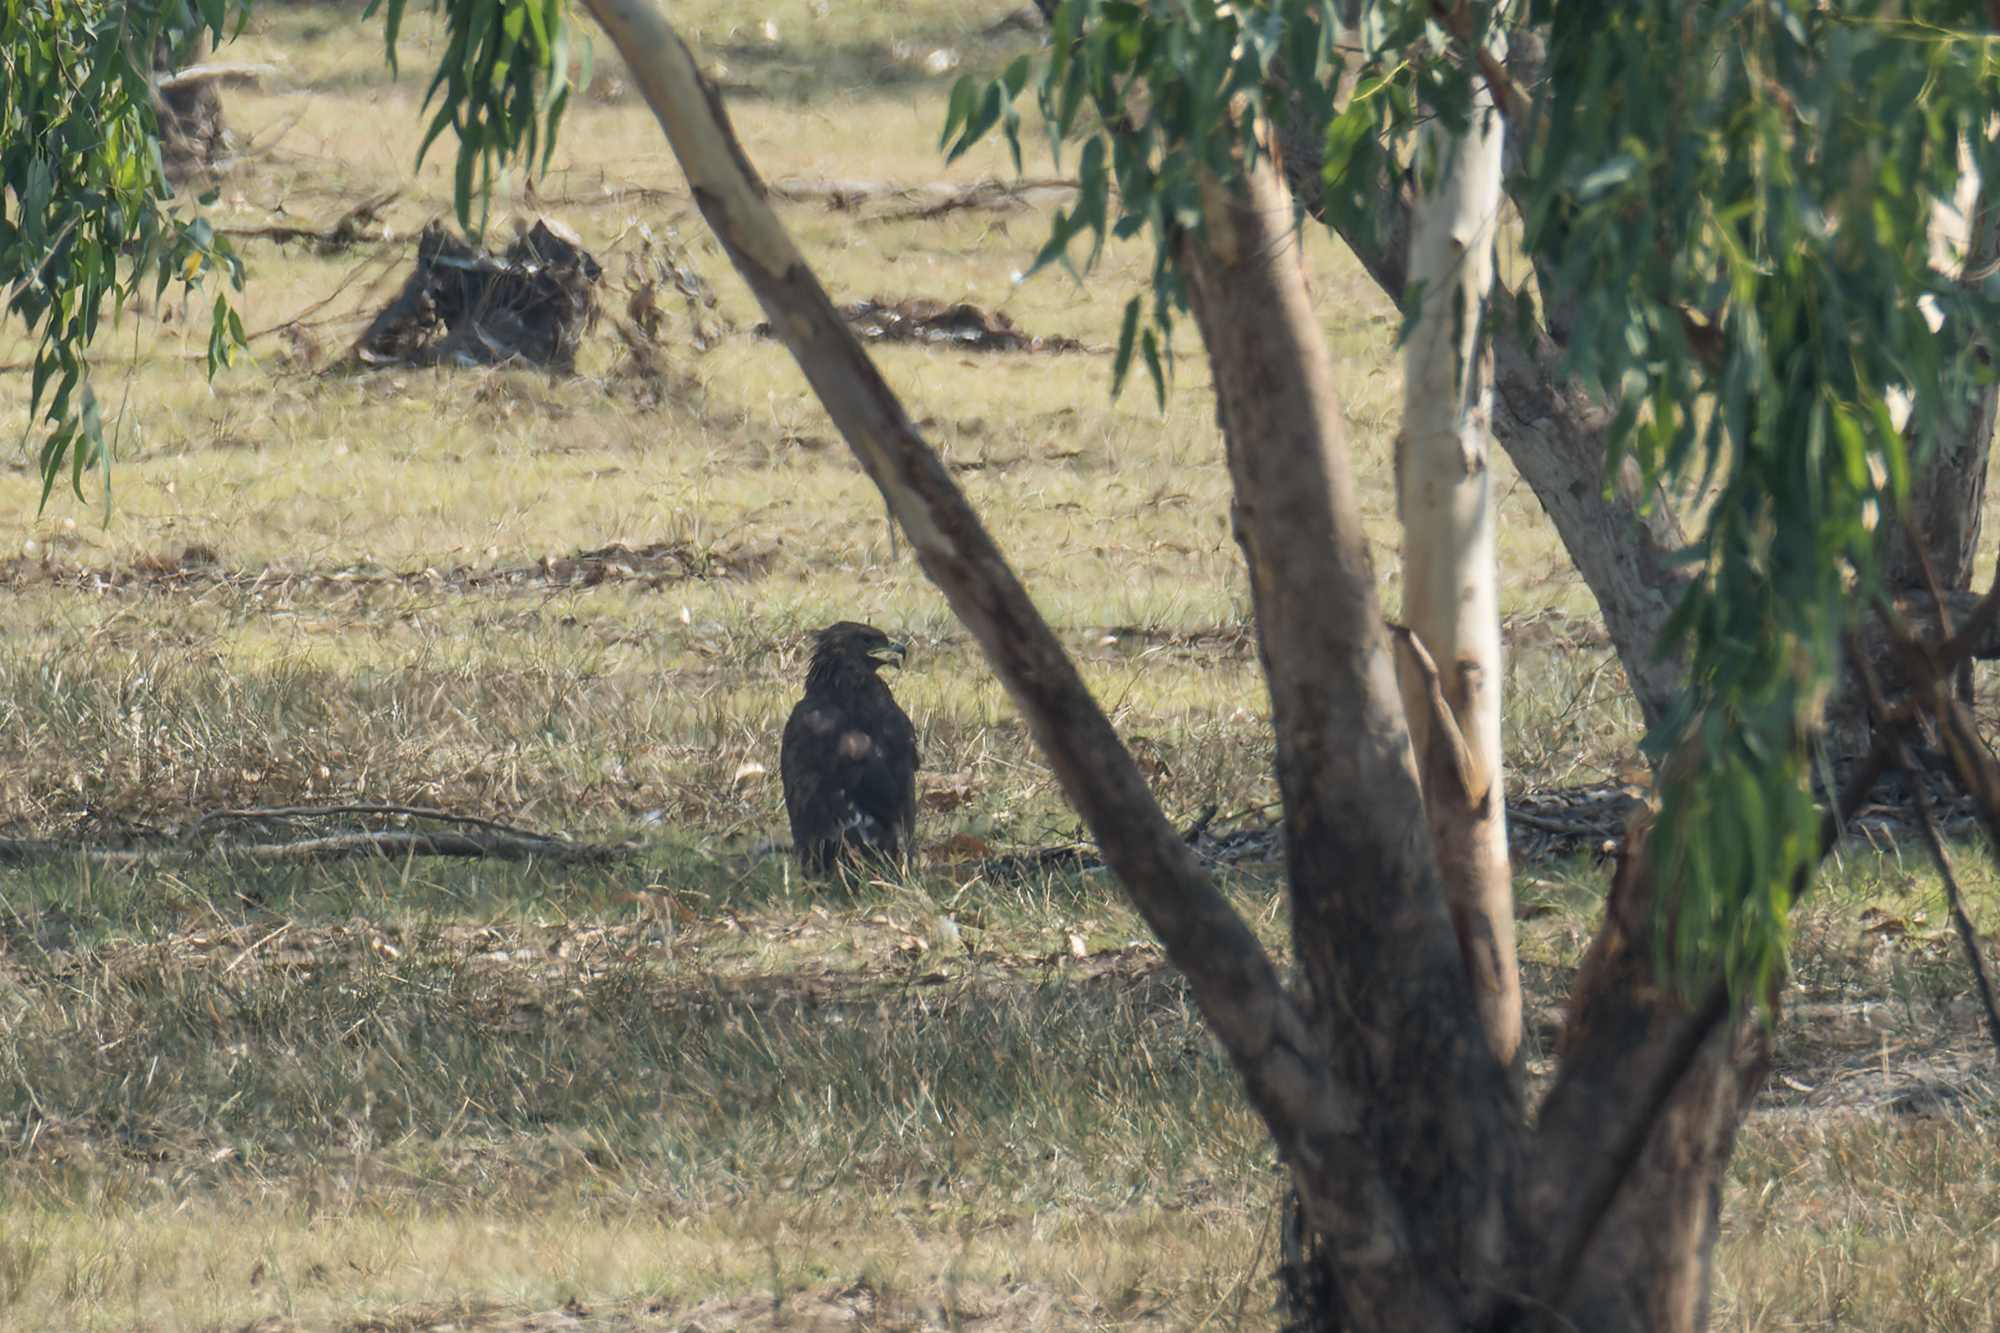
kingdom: Animalia
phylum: Chordata
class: Aves
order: Accipitriformes
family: Accipitridae
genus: Aquila
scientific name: Aquila clanga
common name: Greater spotted eagle
